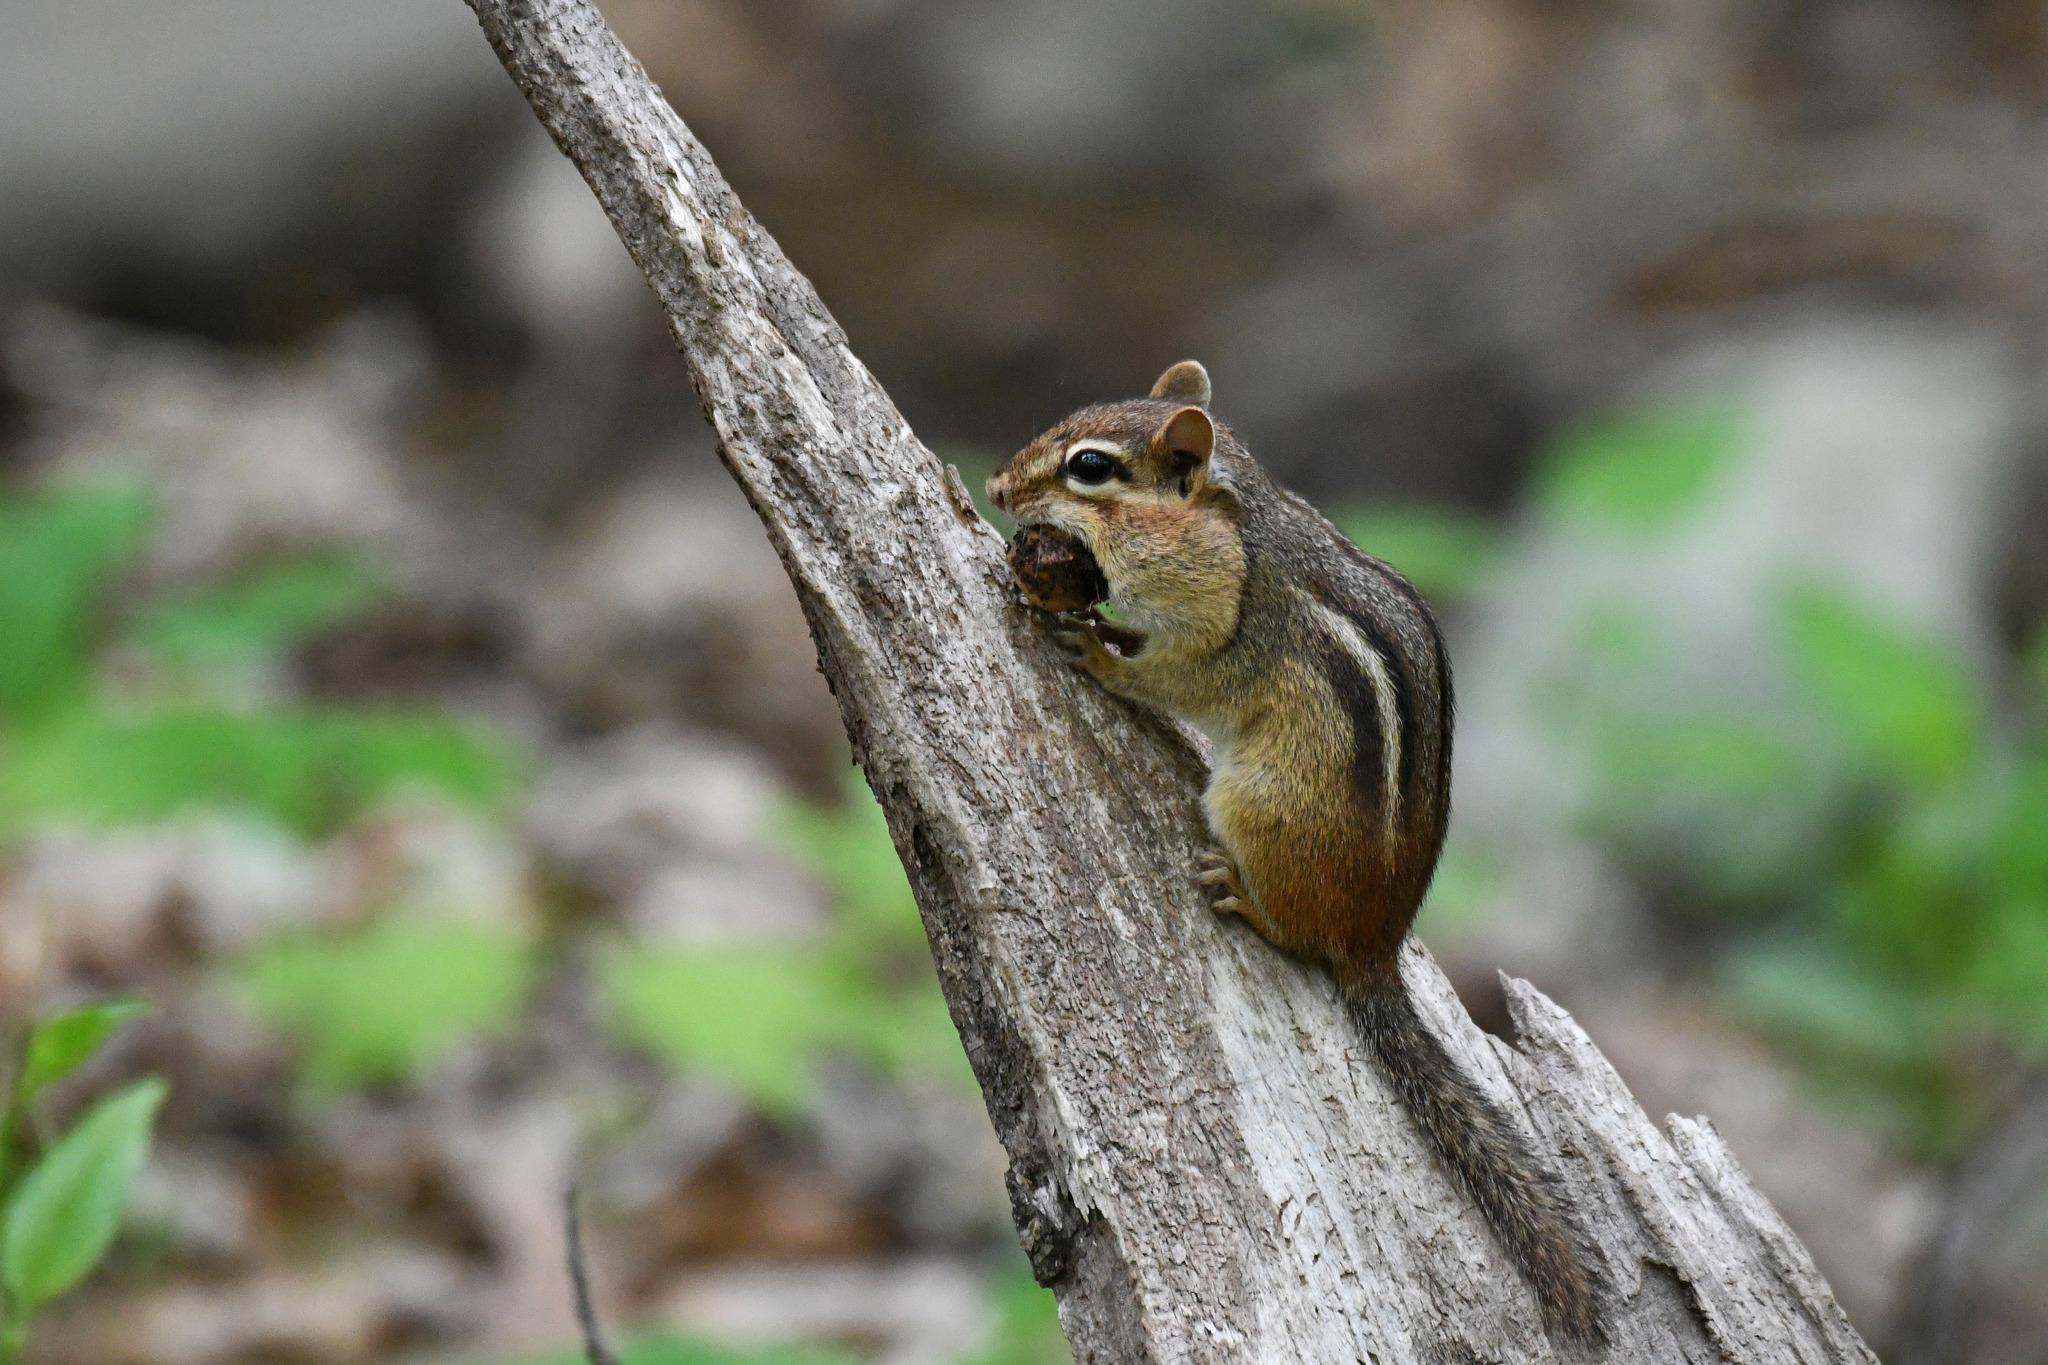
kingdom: Animalia
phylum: Chordata
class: Mammalia
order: Rodentia
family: Sciuridae
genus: Tamias
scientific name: Tamias striatus
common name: Eastern chipmunk
